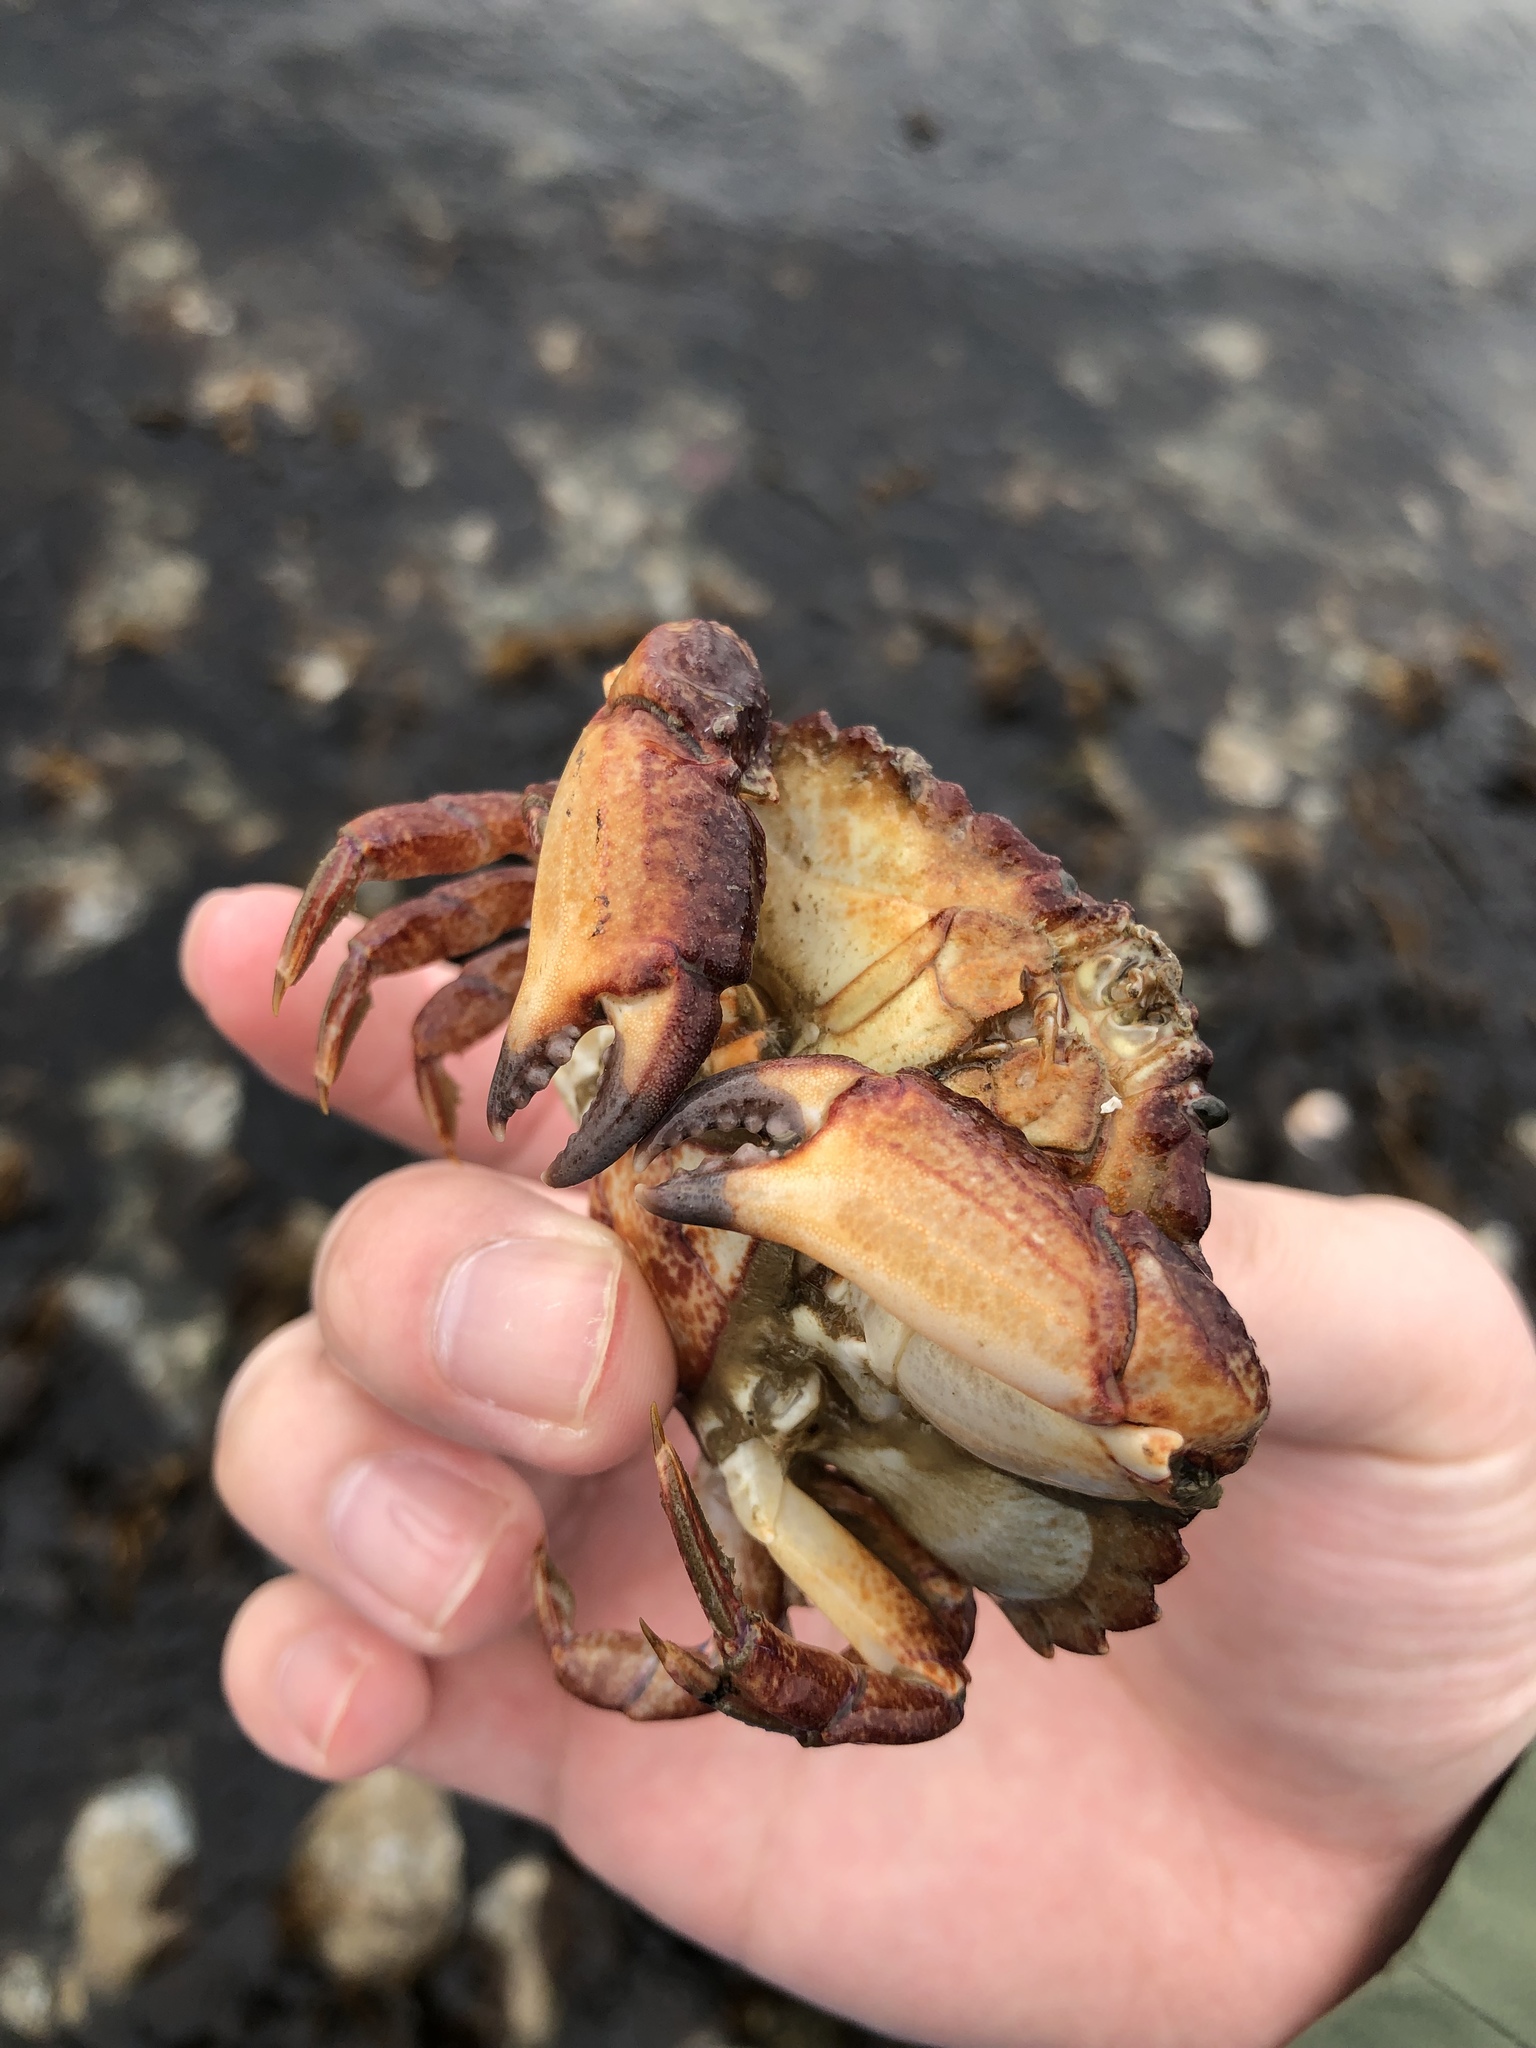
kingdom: Animalia
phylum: Arthropoda
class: Malacostraca
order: Decapoda
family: Cancridae
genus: Cancer
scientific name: Cancer productus
